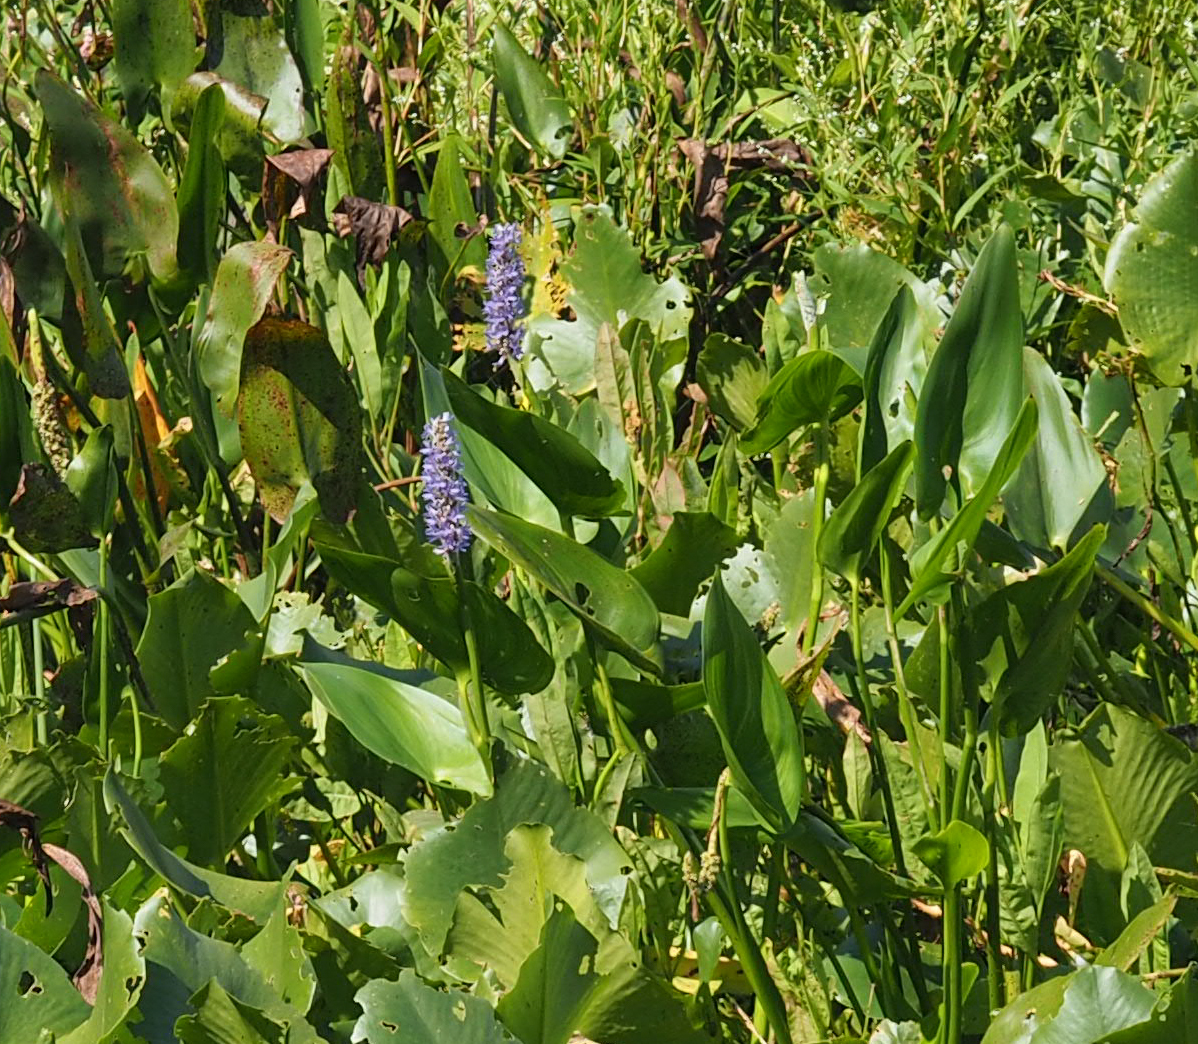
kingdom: Plantae
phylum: Tracheophyta
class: Liliopsida
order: Commelinales
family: Pontederiaceae
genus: Pontederia
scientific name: Pontederia cordata
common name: Pickerelweed
